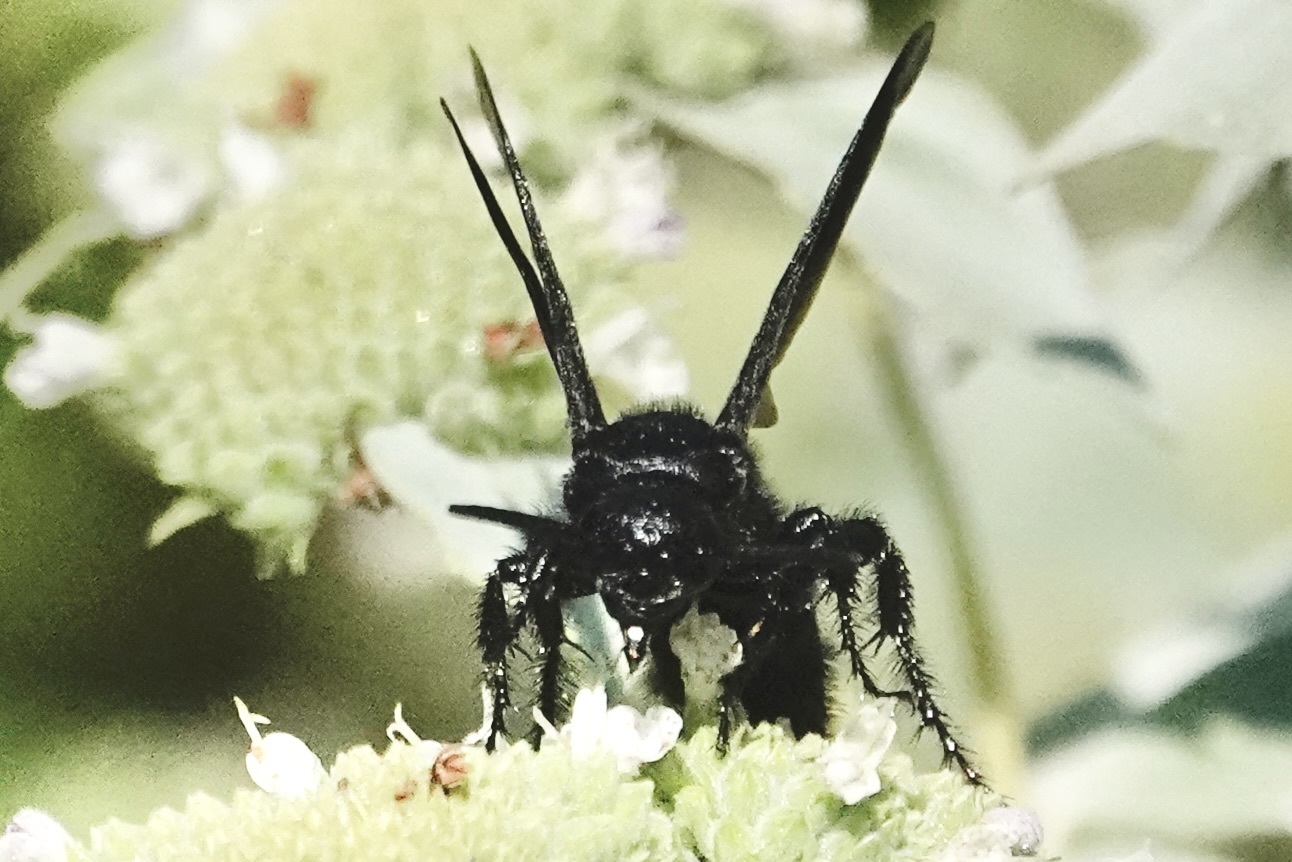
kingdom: Animalia
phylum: Arthropoda
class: Insecta
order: Hymenoptera
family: Scoliidae
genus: Scolia
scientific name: Scolia bicincta
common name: Double-banded scoliid wasp
